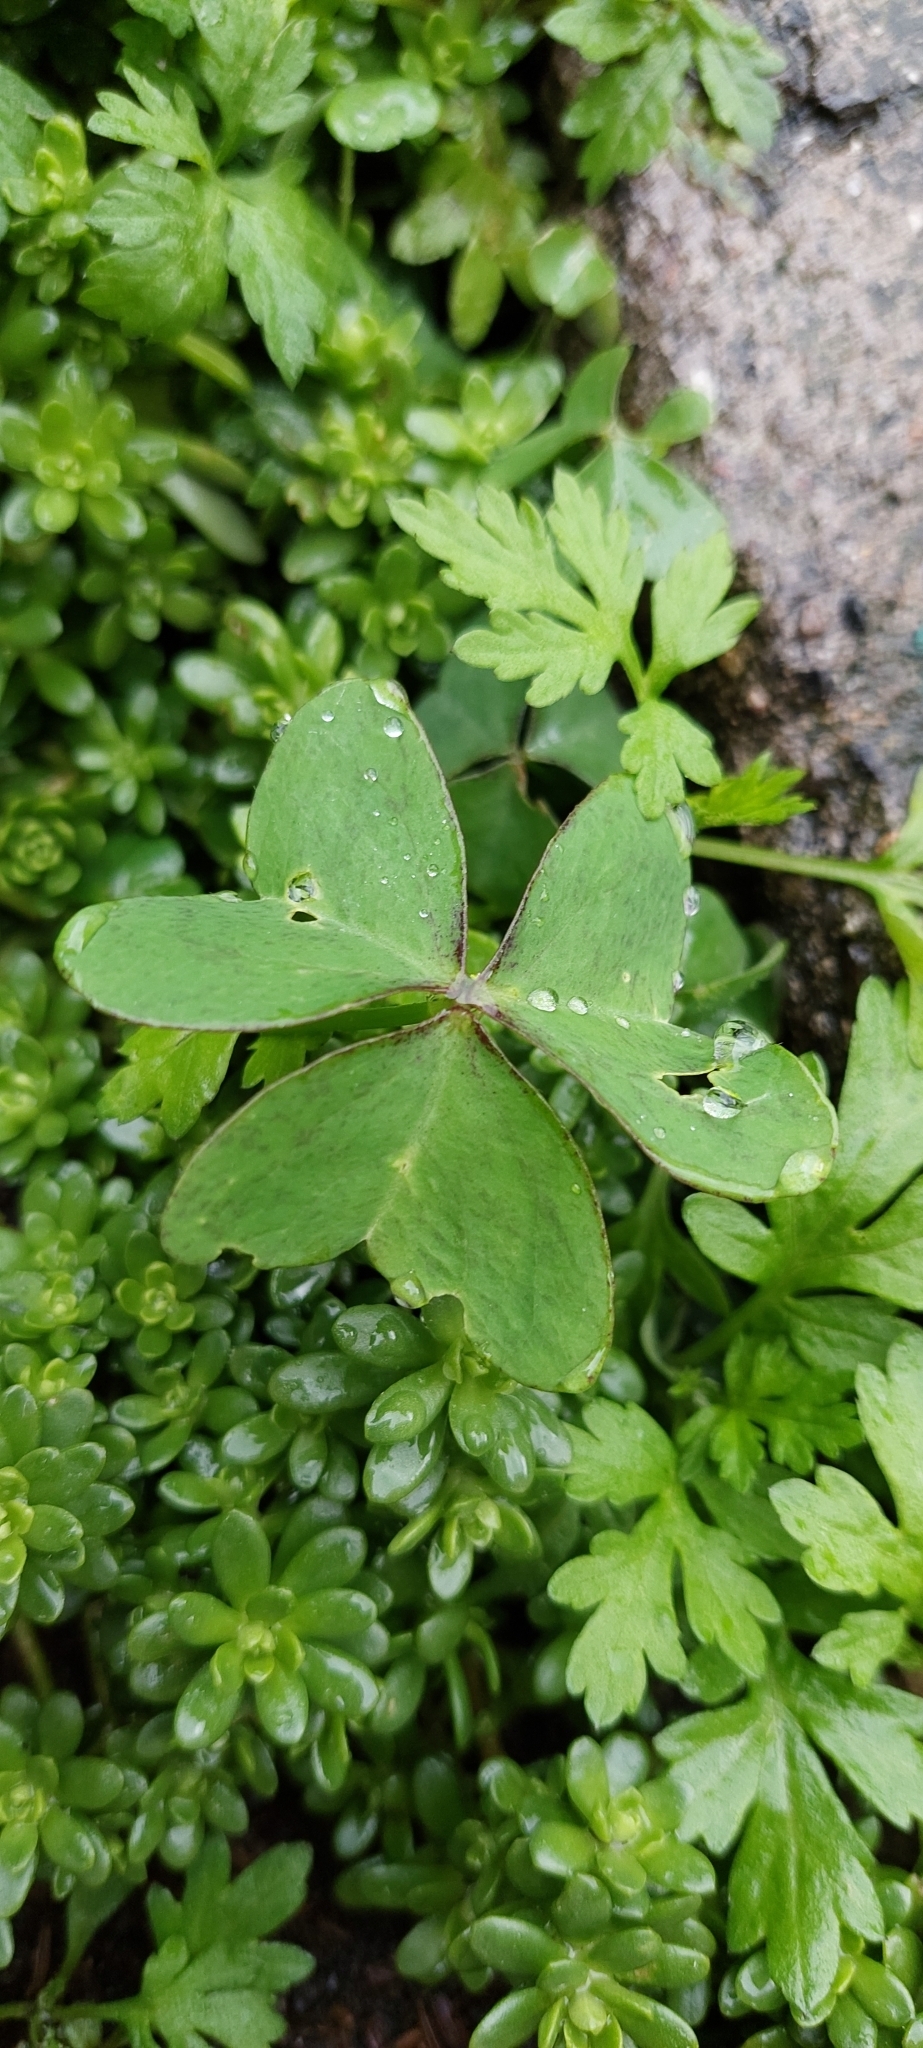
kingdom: Plantae
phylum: Tracheophyta
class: Magnoliopsida
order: Oxalidales
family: Oxalidaceae
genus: Oxalis
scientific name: Oxalis latifolia
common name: Garden pink-sorrel
